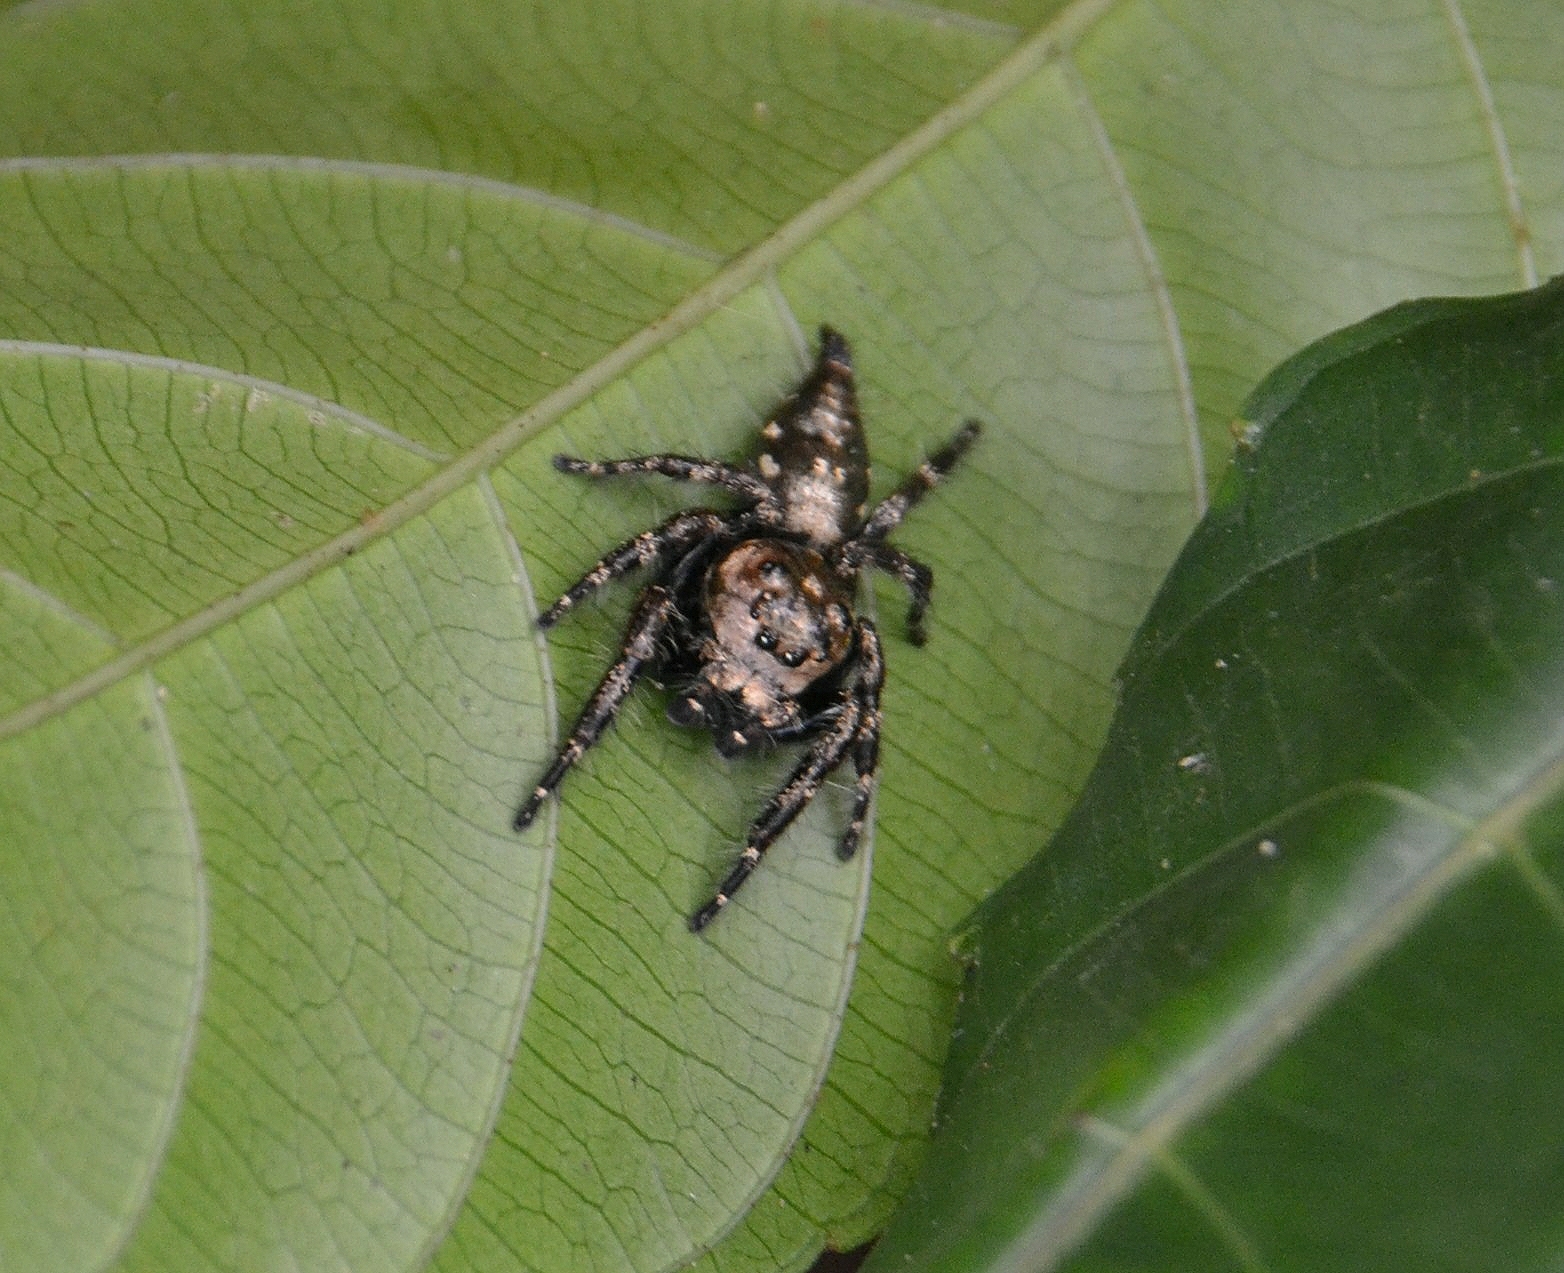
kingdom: Animalia
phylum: Arthropoda
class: Arachnida
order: Araneae
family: Salticidae
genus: Hyllus
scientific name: Hyllus semicupreus
